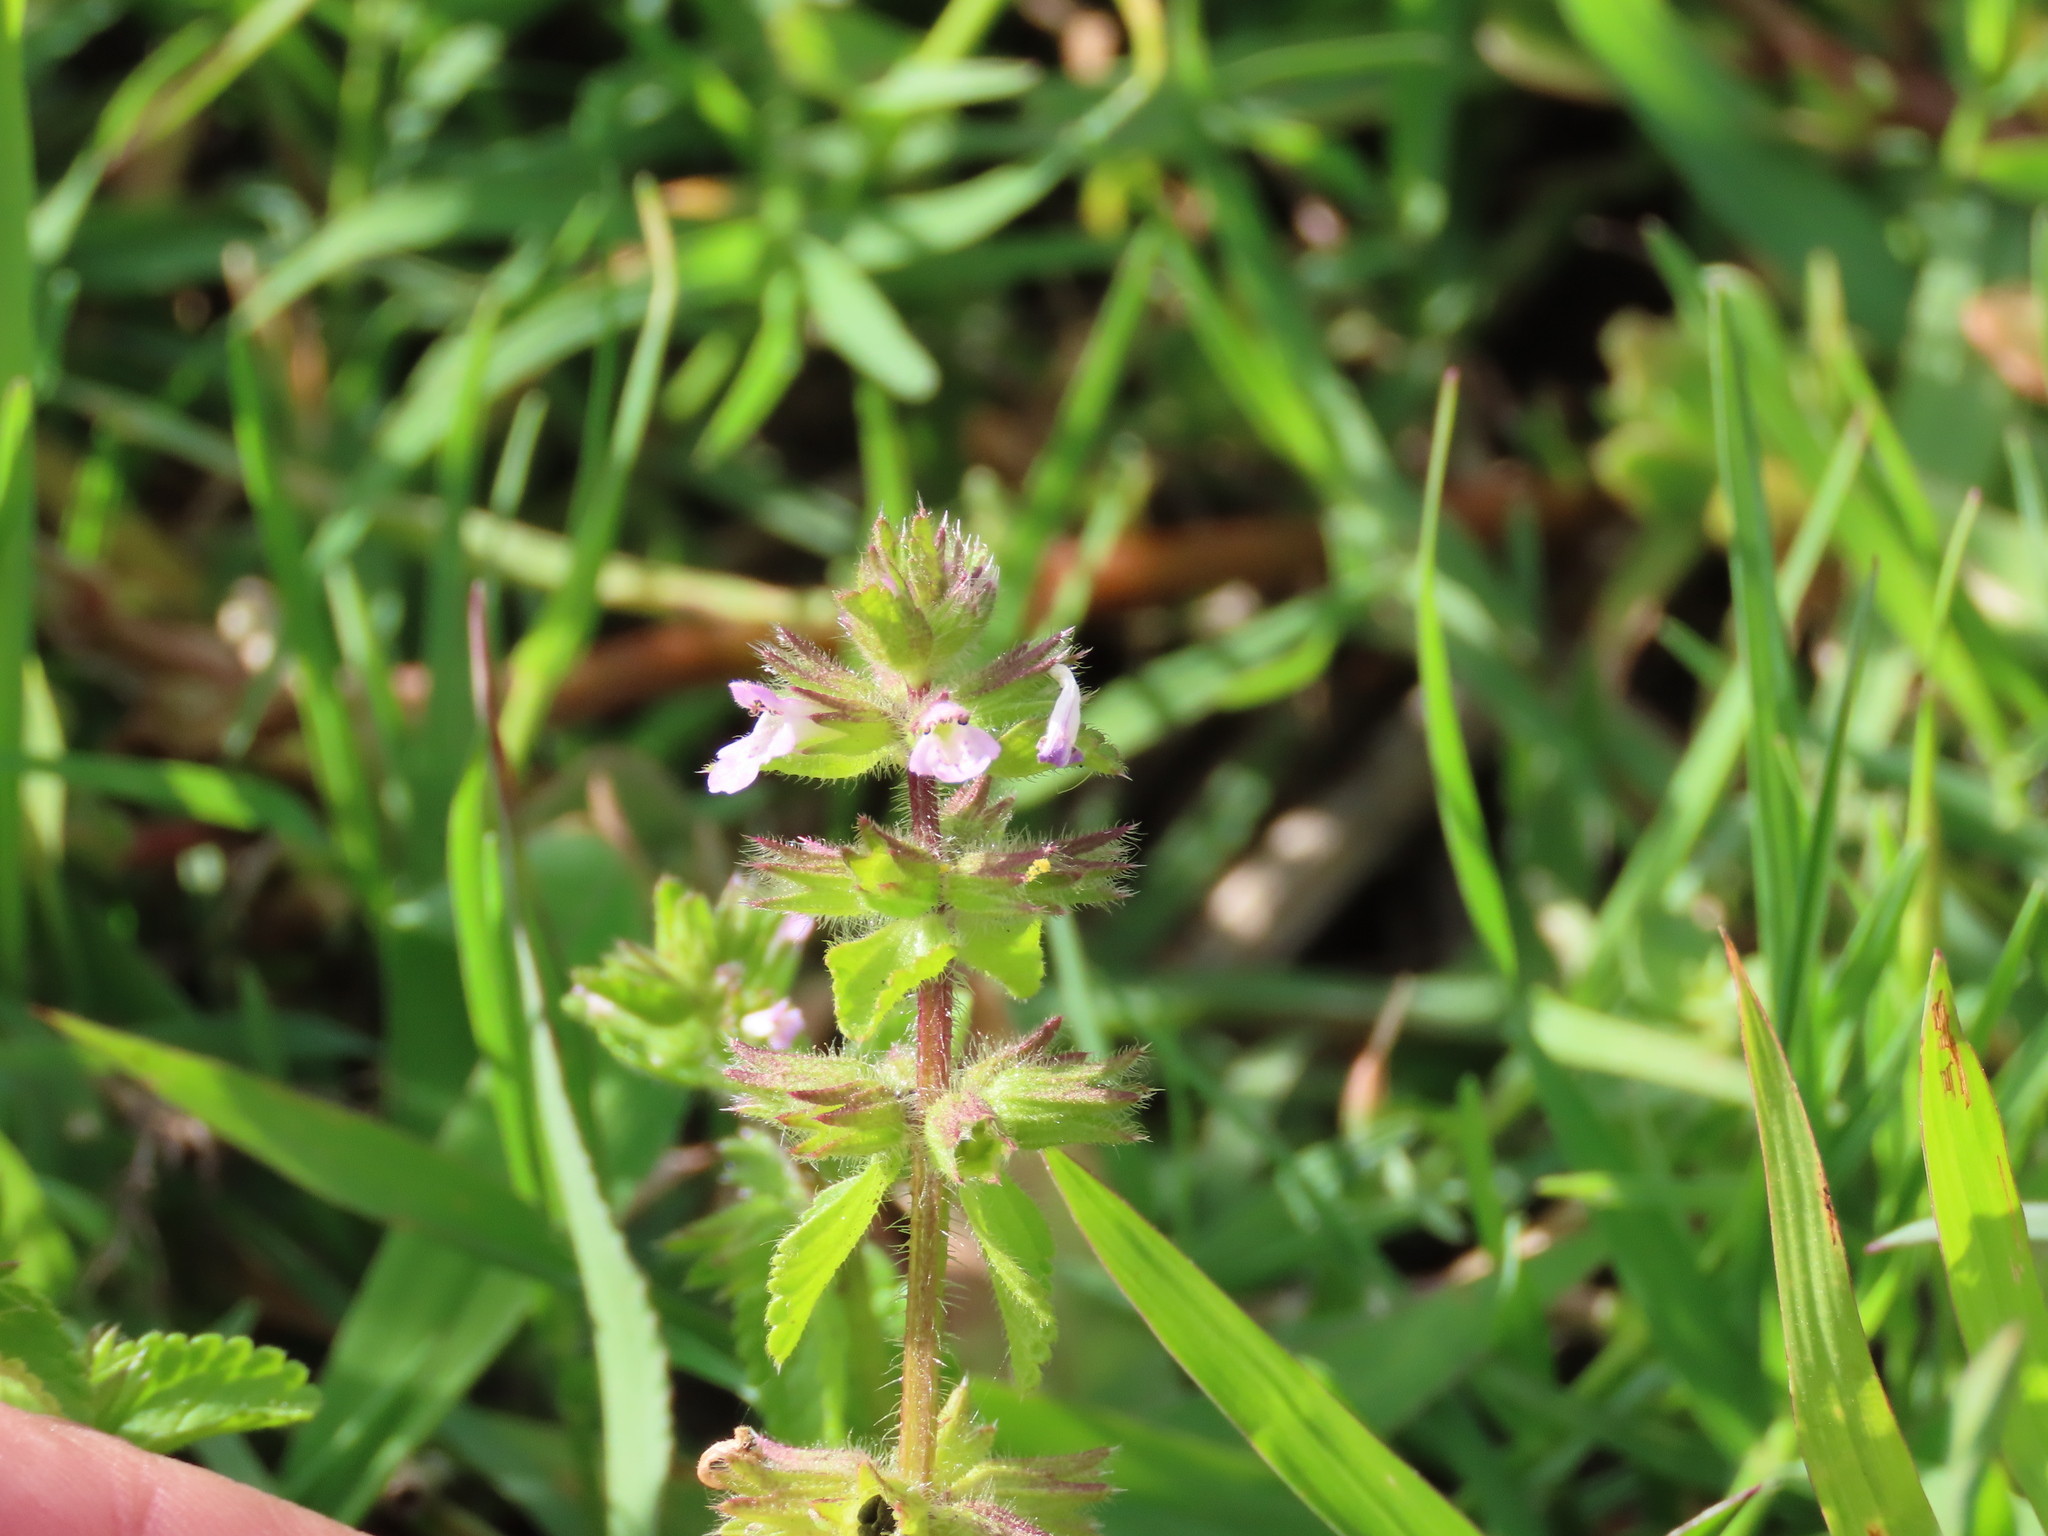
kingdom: Plantae
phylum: Tracheophyta
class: Magnoliopsida
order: Lamiales
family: Lamiaceae
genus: Stachys
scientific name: Stachys arvensis
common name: Field woundwort
